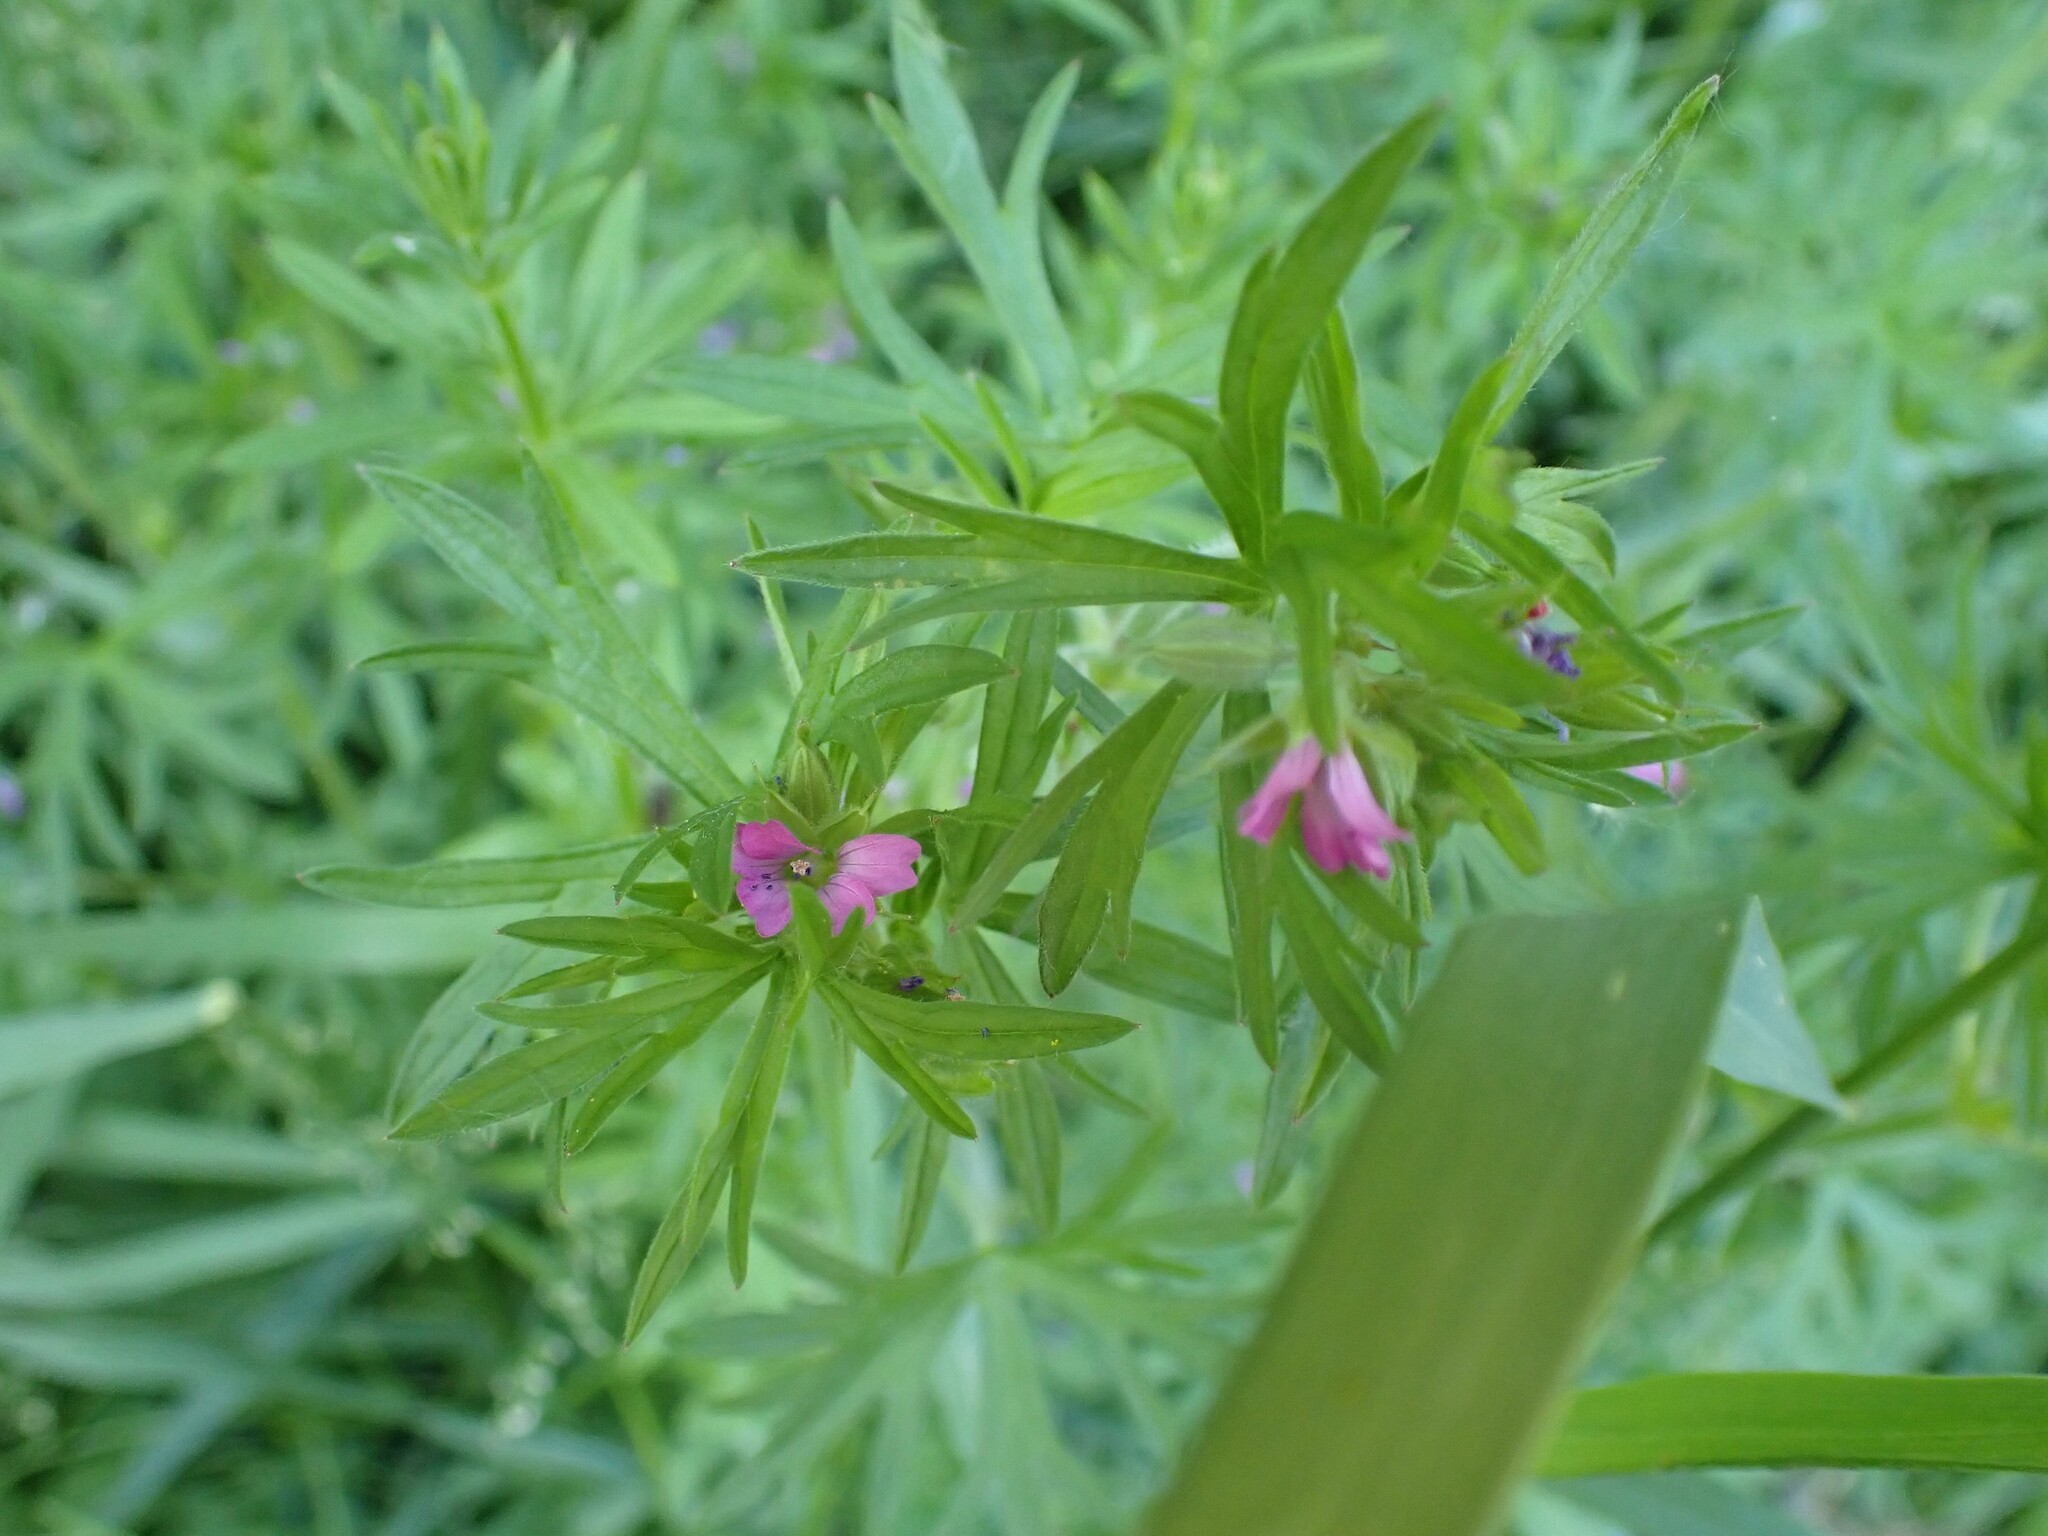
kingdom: Plantae
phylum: Tracheophyta
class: Magnoliopsida
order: Geraniales
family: Geraniaceae
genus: Geranium
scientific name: Geranium dissectum
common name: Cut-leaved crane's-bill
